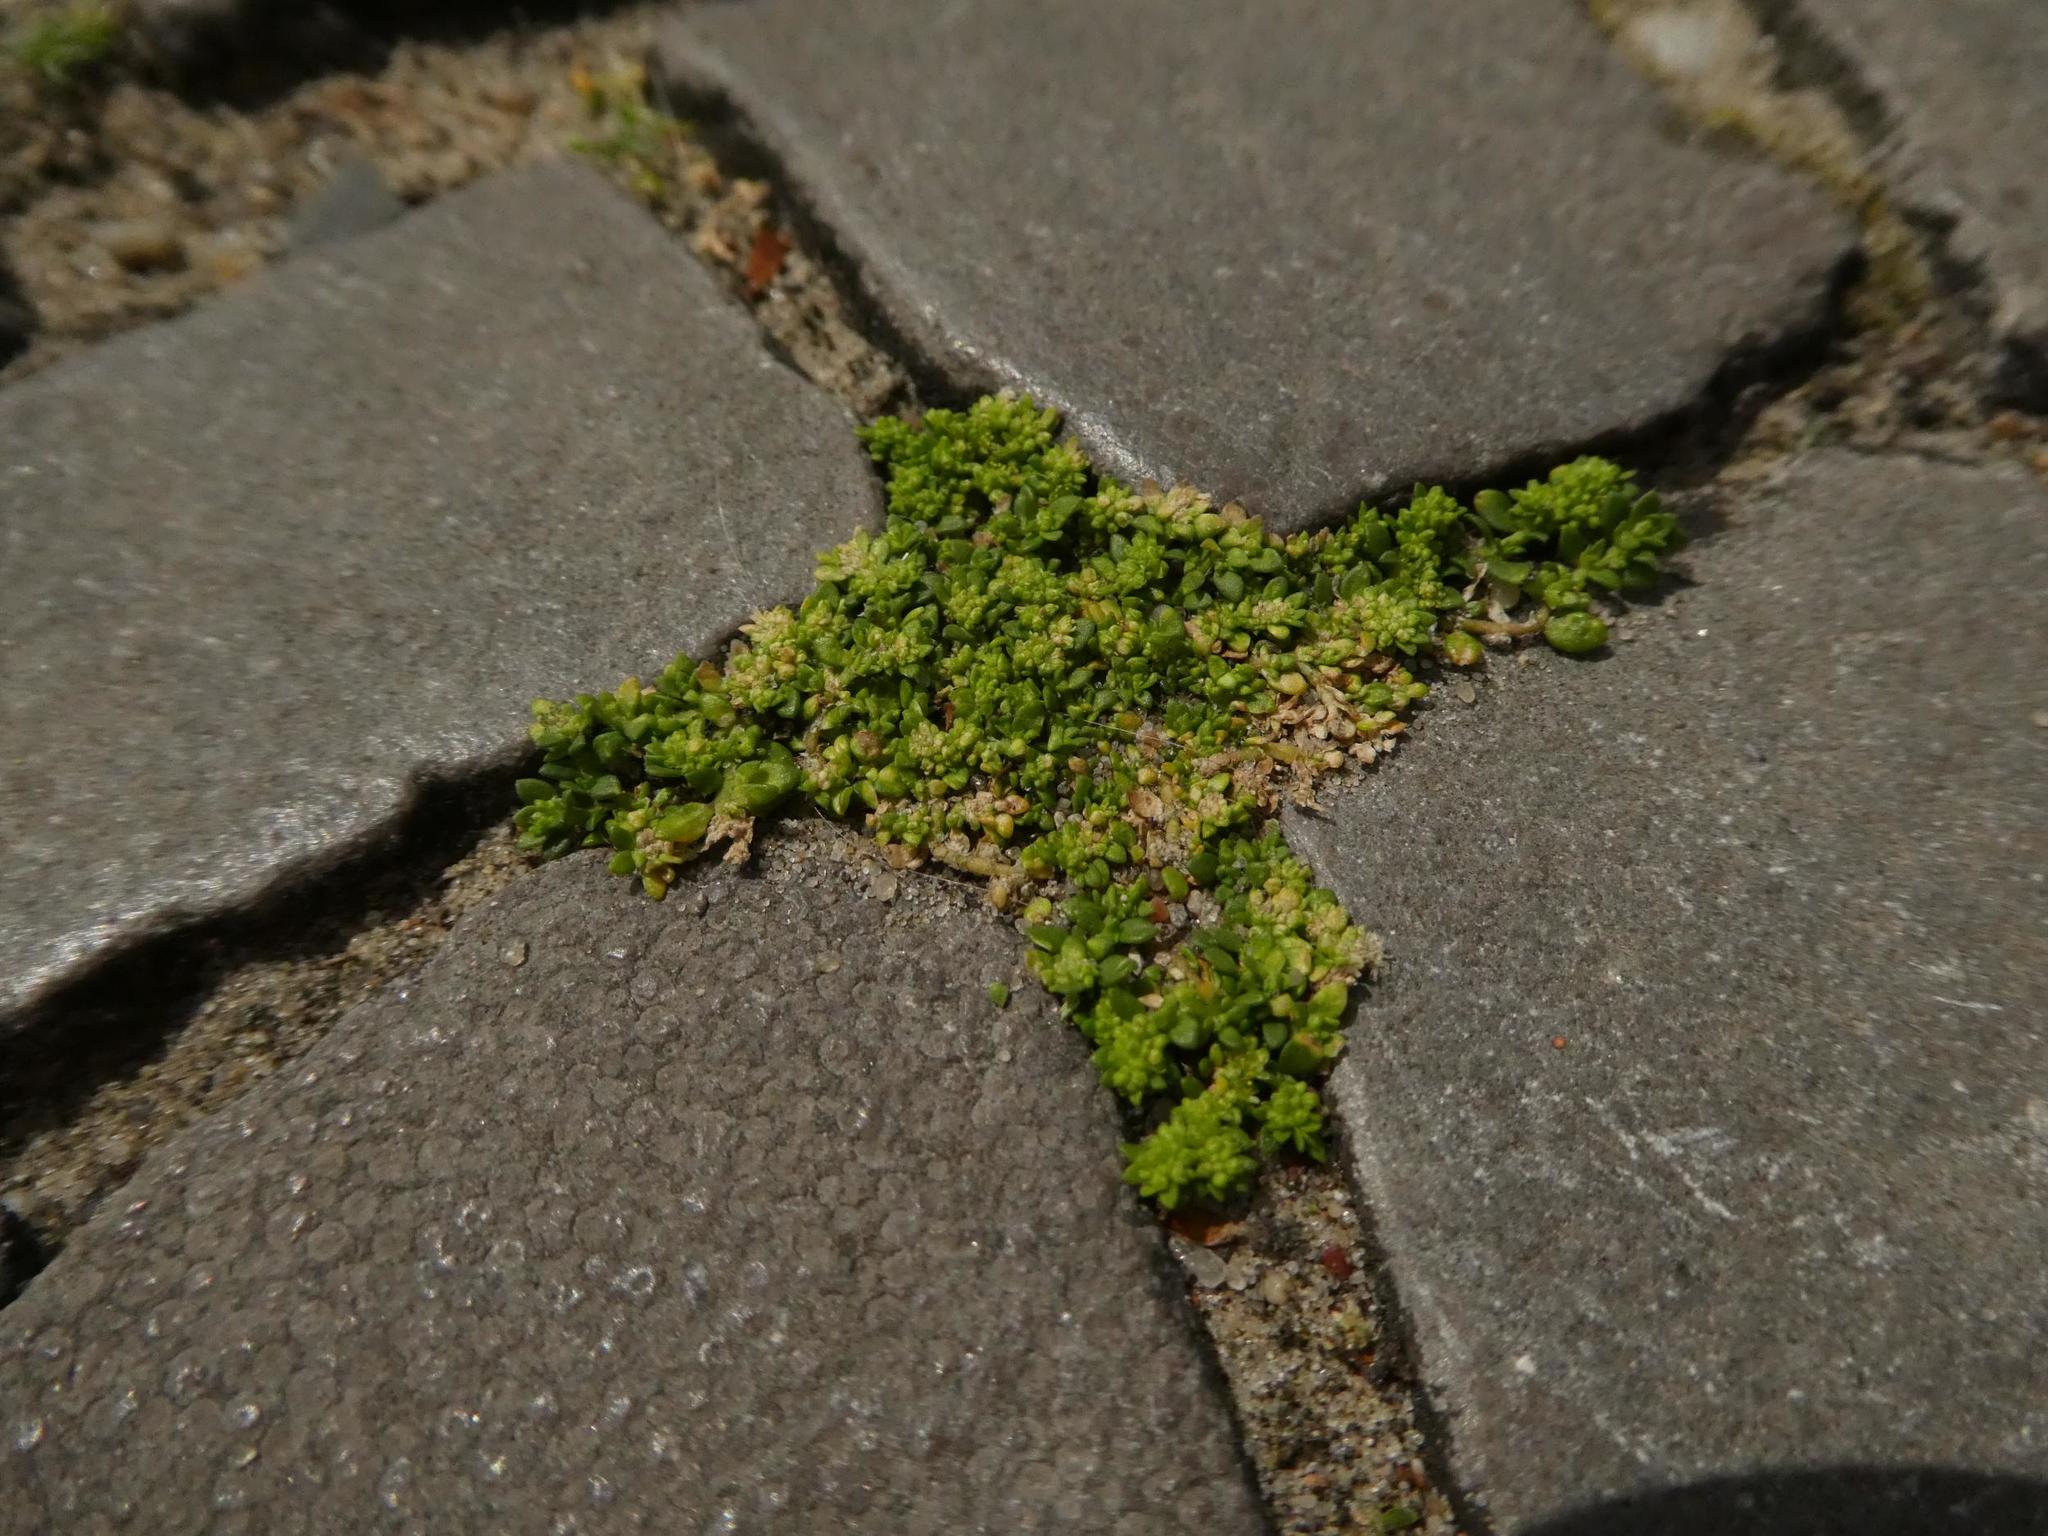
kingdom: Plantae
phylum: Tracheophyta
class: Magnoliopsida
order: Caryophyllales
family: Caryophyllaceae
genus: Herniaria
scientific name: Herniaria glabra
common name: Smooth rupturewort
